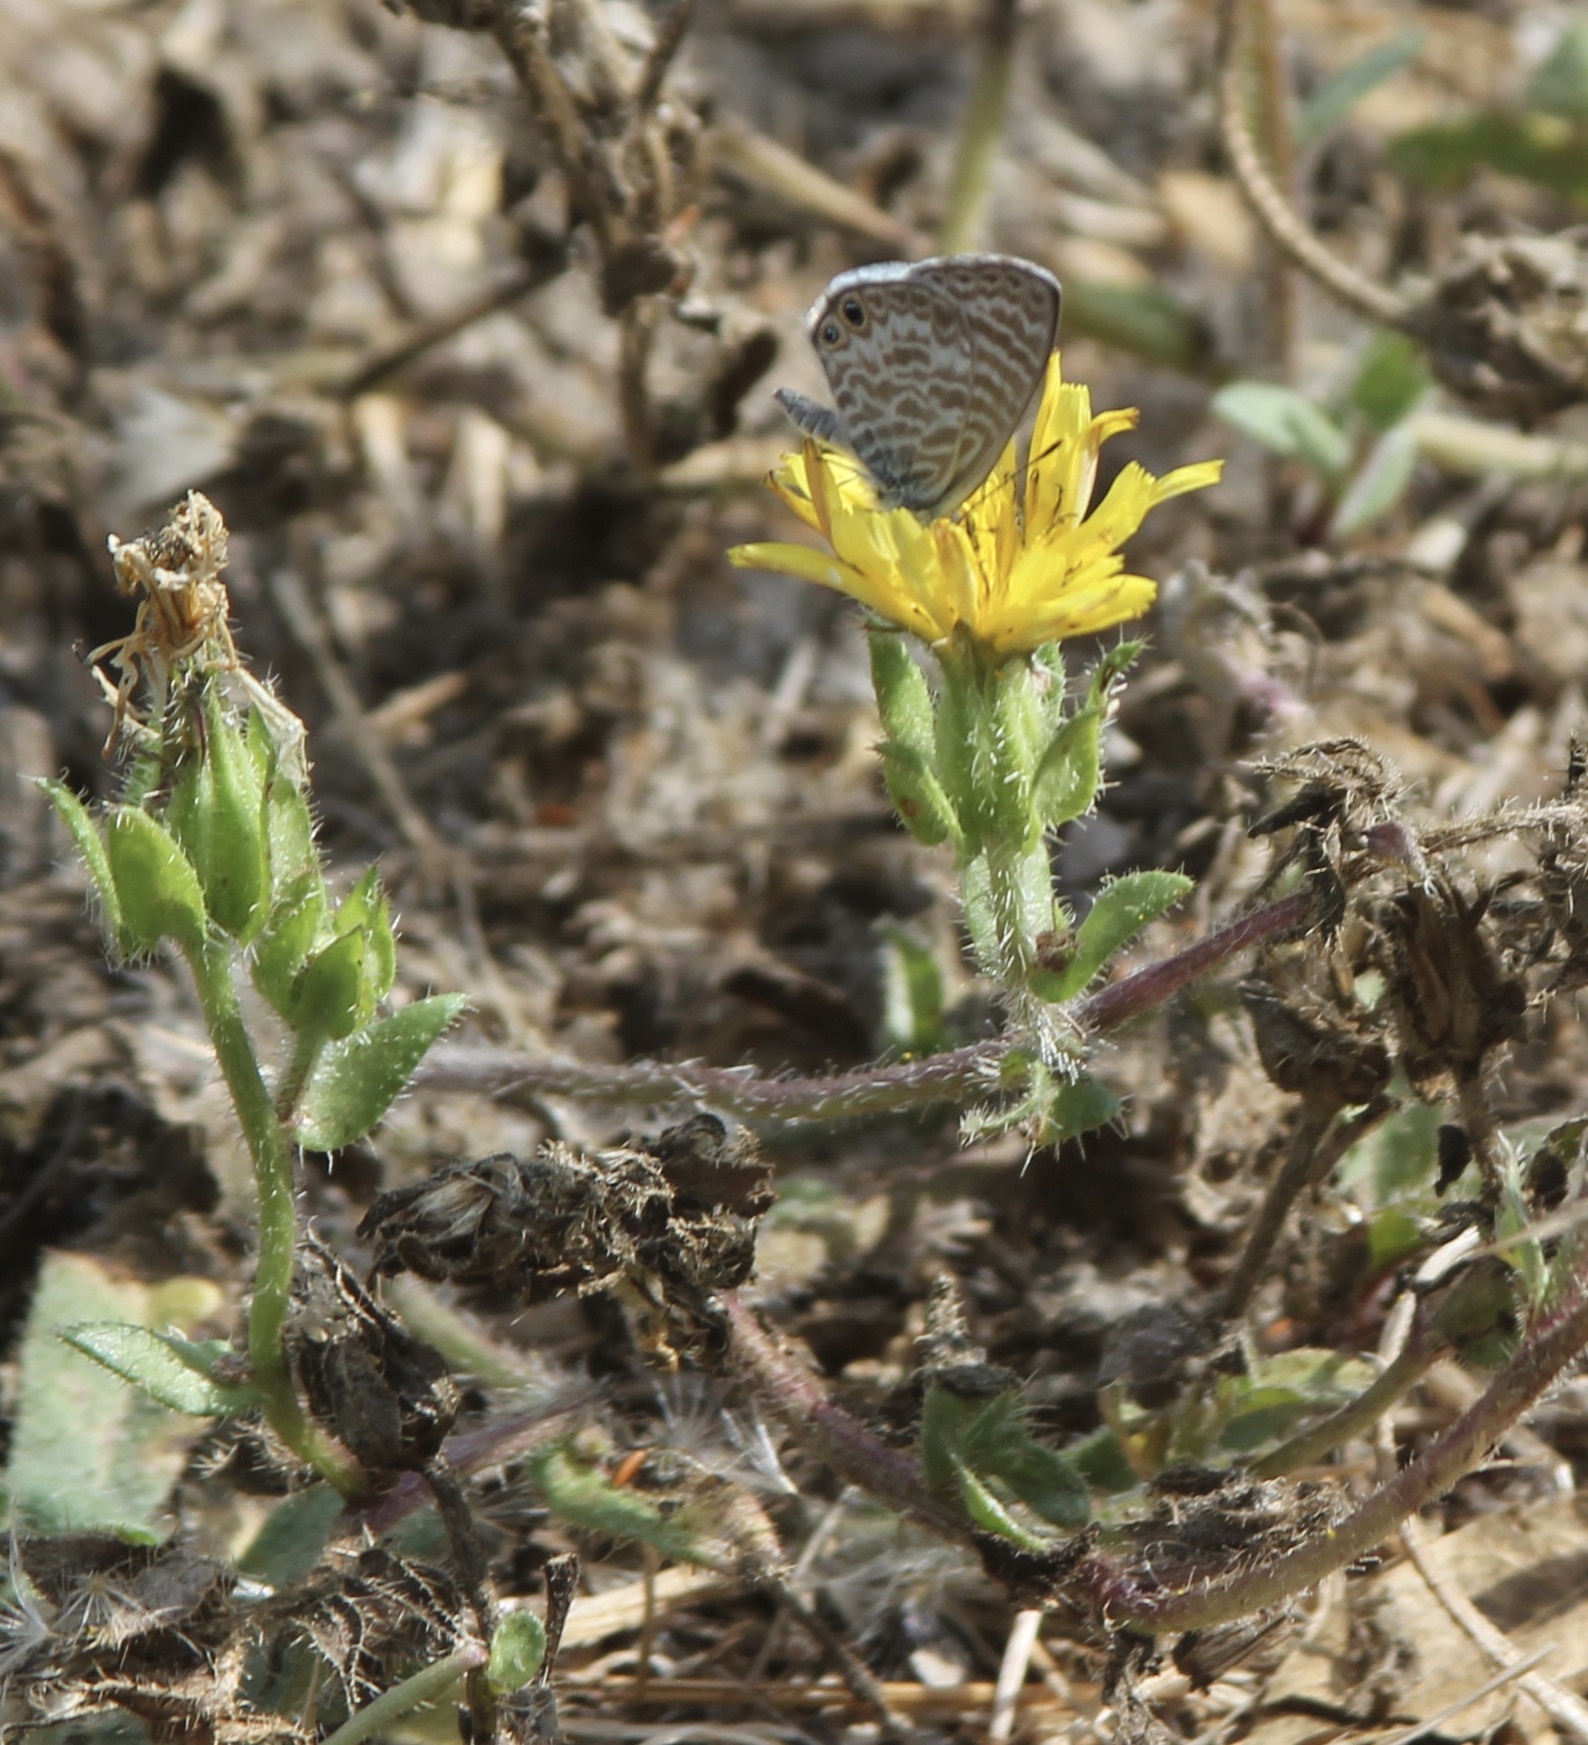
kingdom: Animalia
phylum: Arthropoda
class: Insecta
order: Lepidoptera
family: Lycaenidae
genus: Leptotes
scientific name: Leptotes marina
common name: Marine blue
